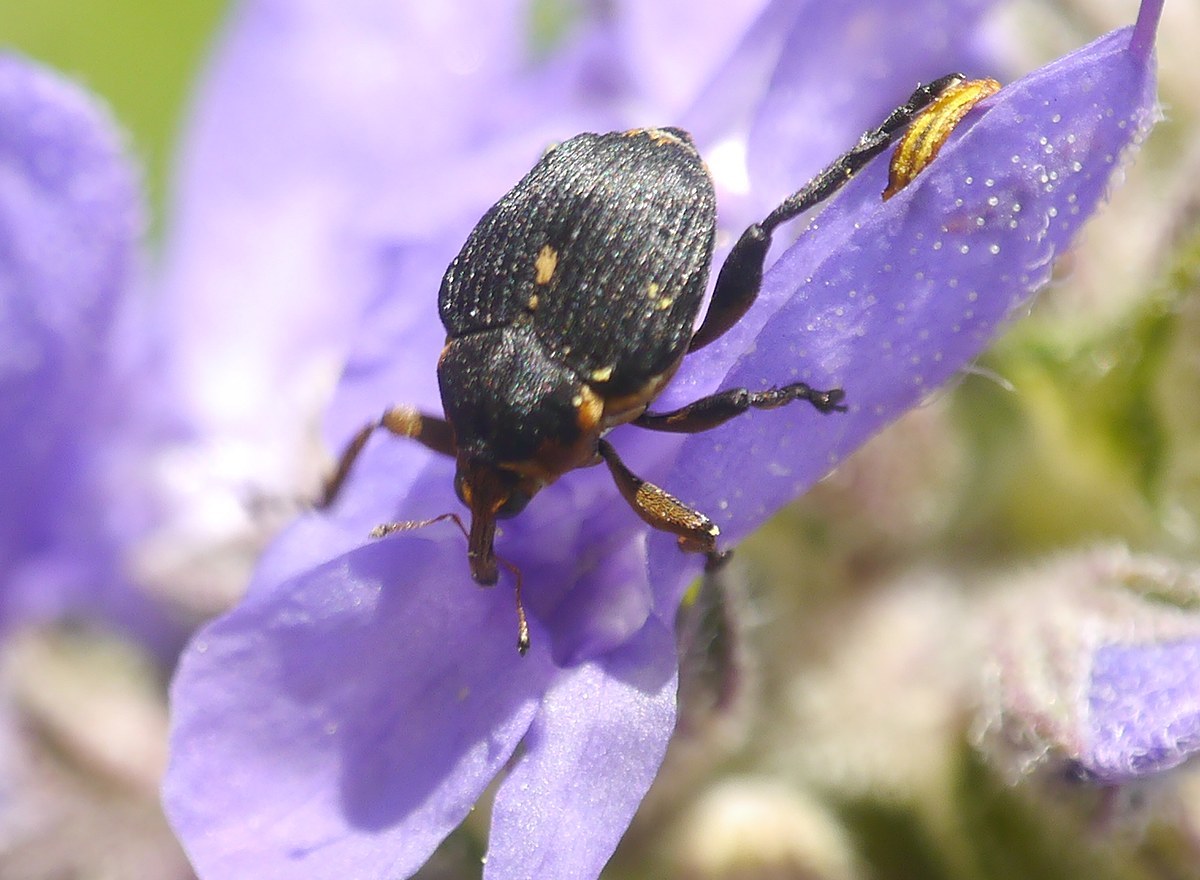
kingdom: Animalia
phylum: Arthropoda
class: Insecta
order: Coleoptera
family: Curculionidae
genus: Mononychus
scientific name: Mononychus punctumalbum
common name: Iris weevil
